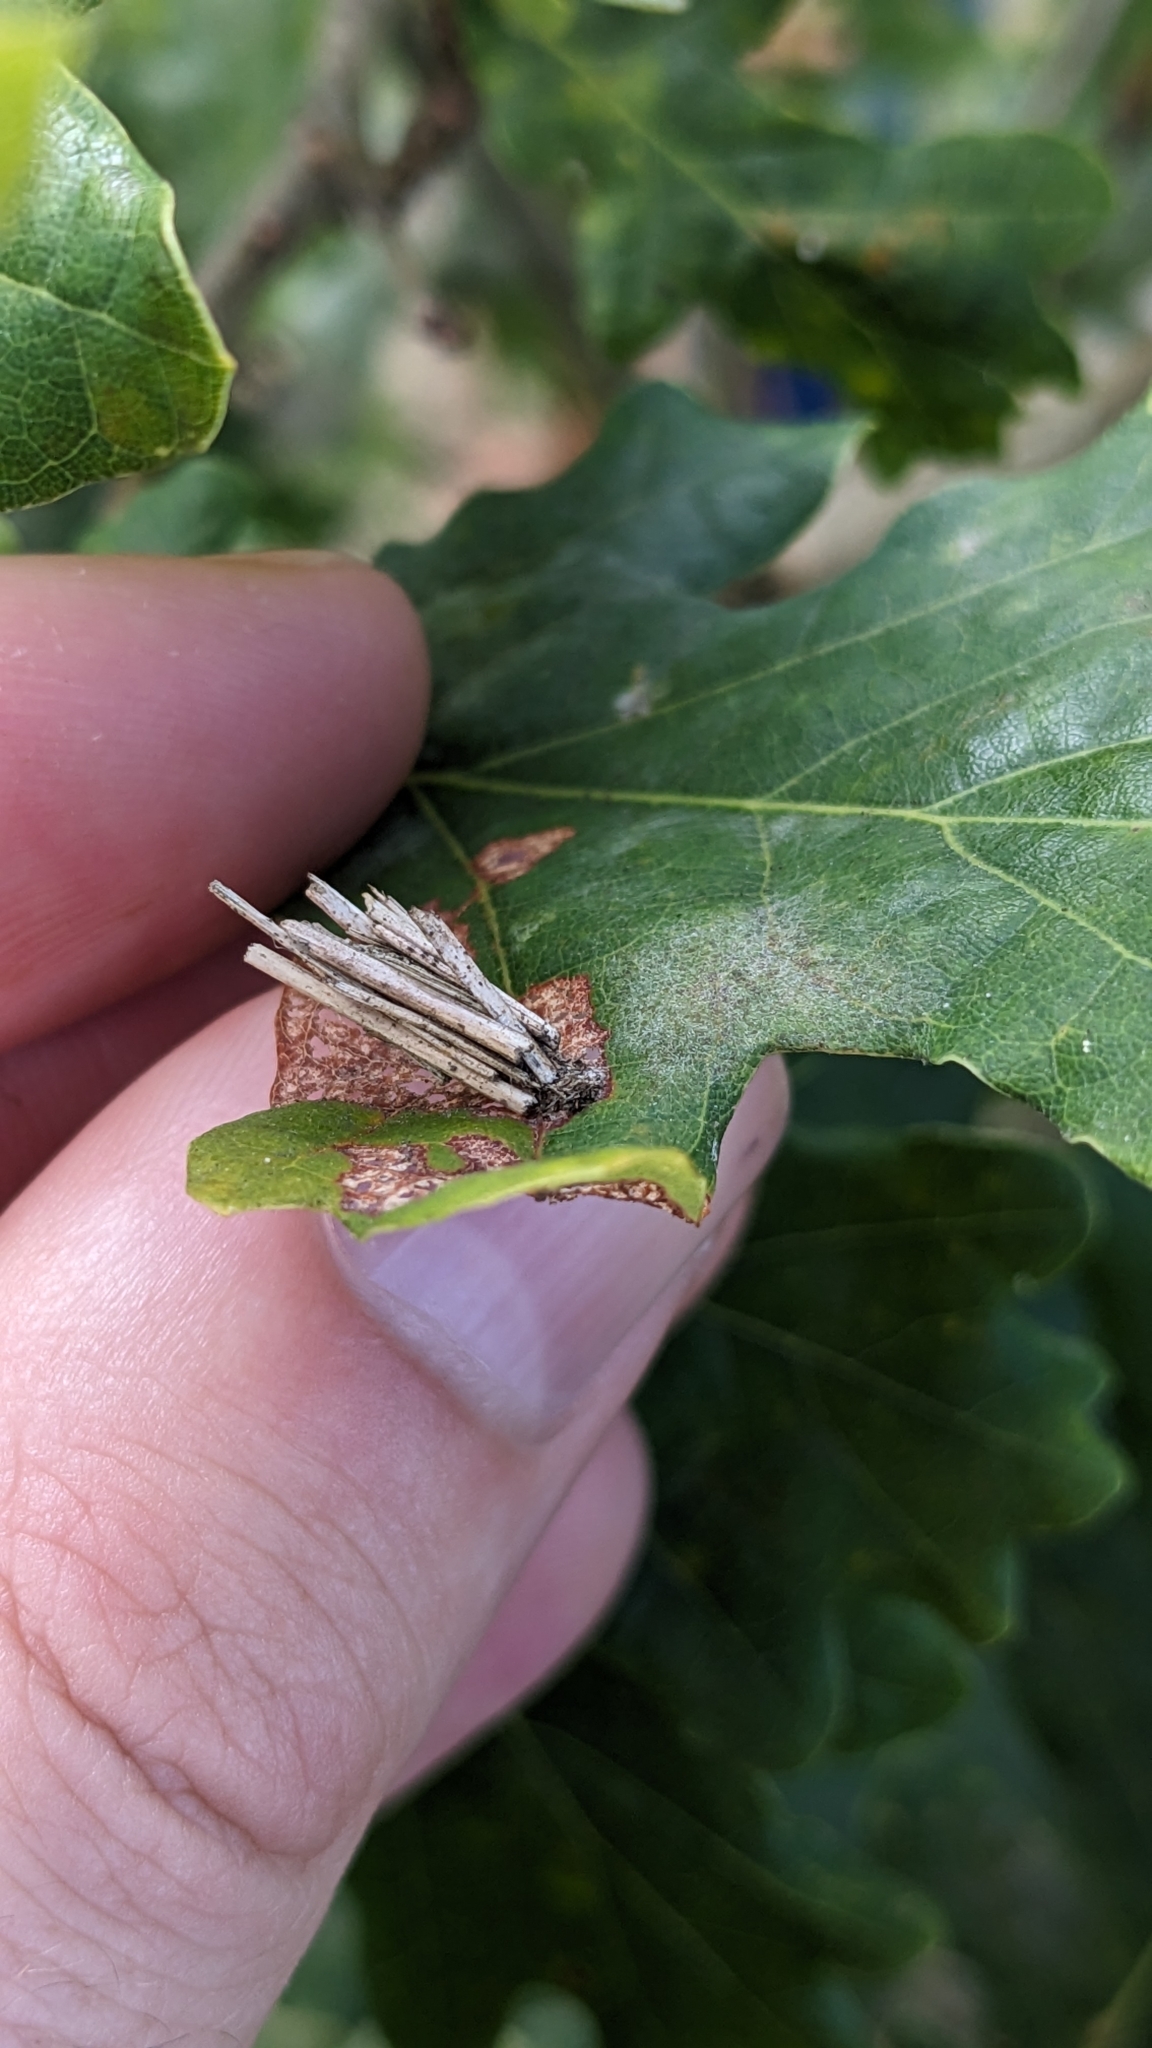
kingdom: Animalia
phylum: Arthropoda
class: Insecta
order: Lepidoptera
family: Psychidae
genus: Psyche
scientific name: Psyche casta
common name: Common sweep
